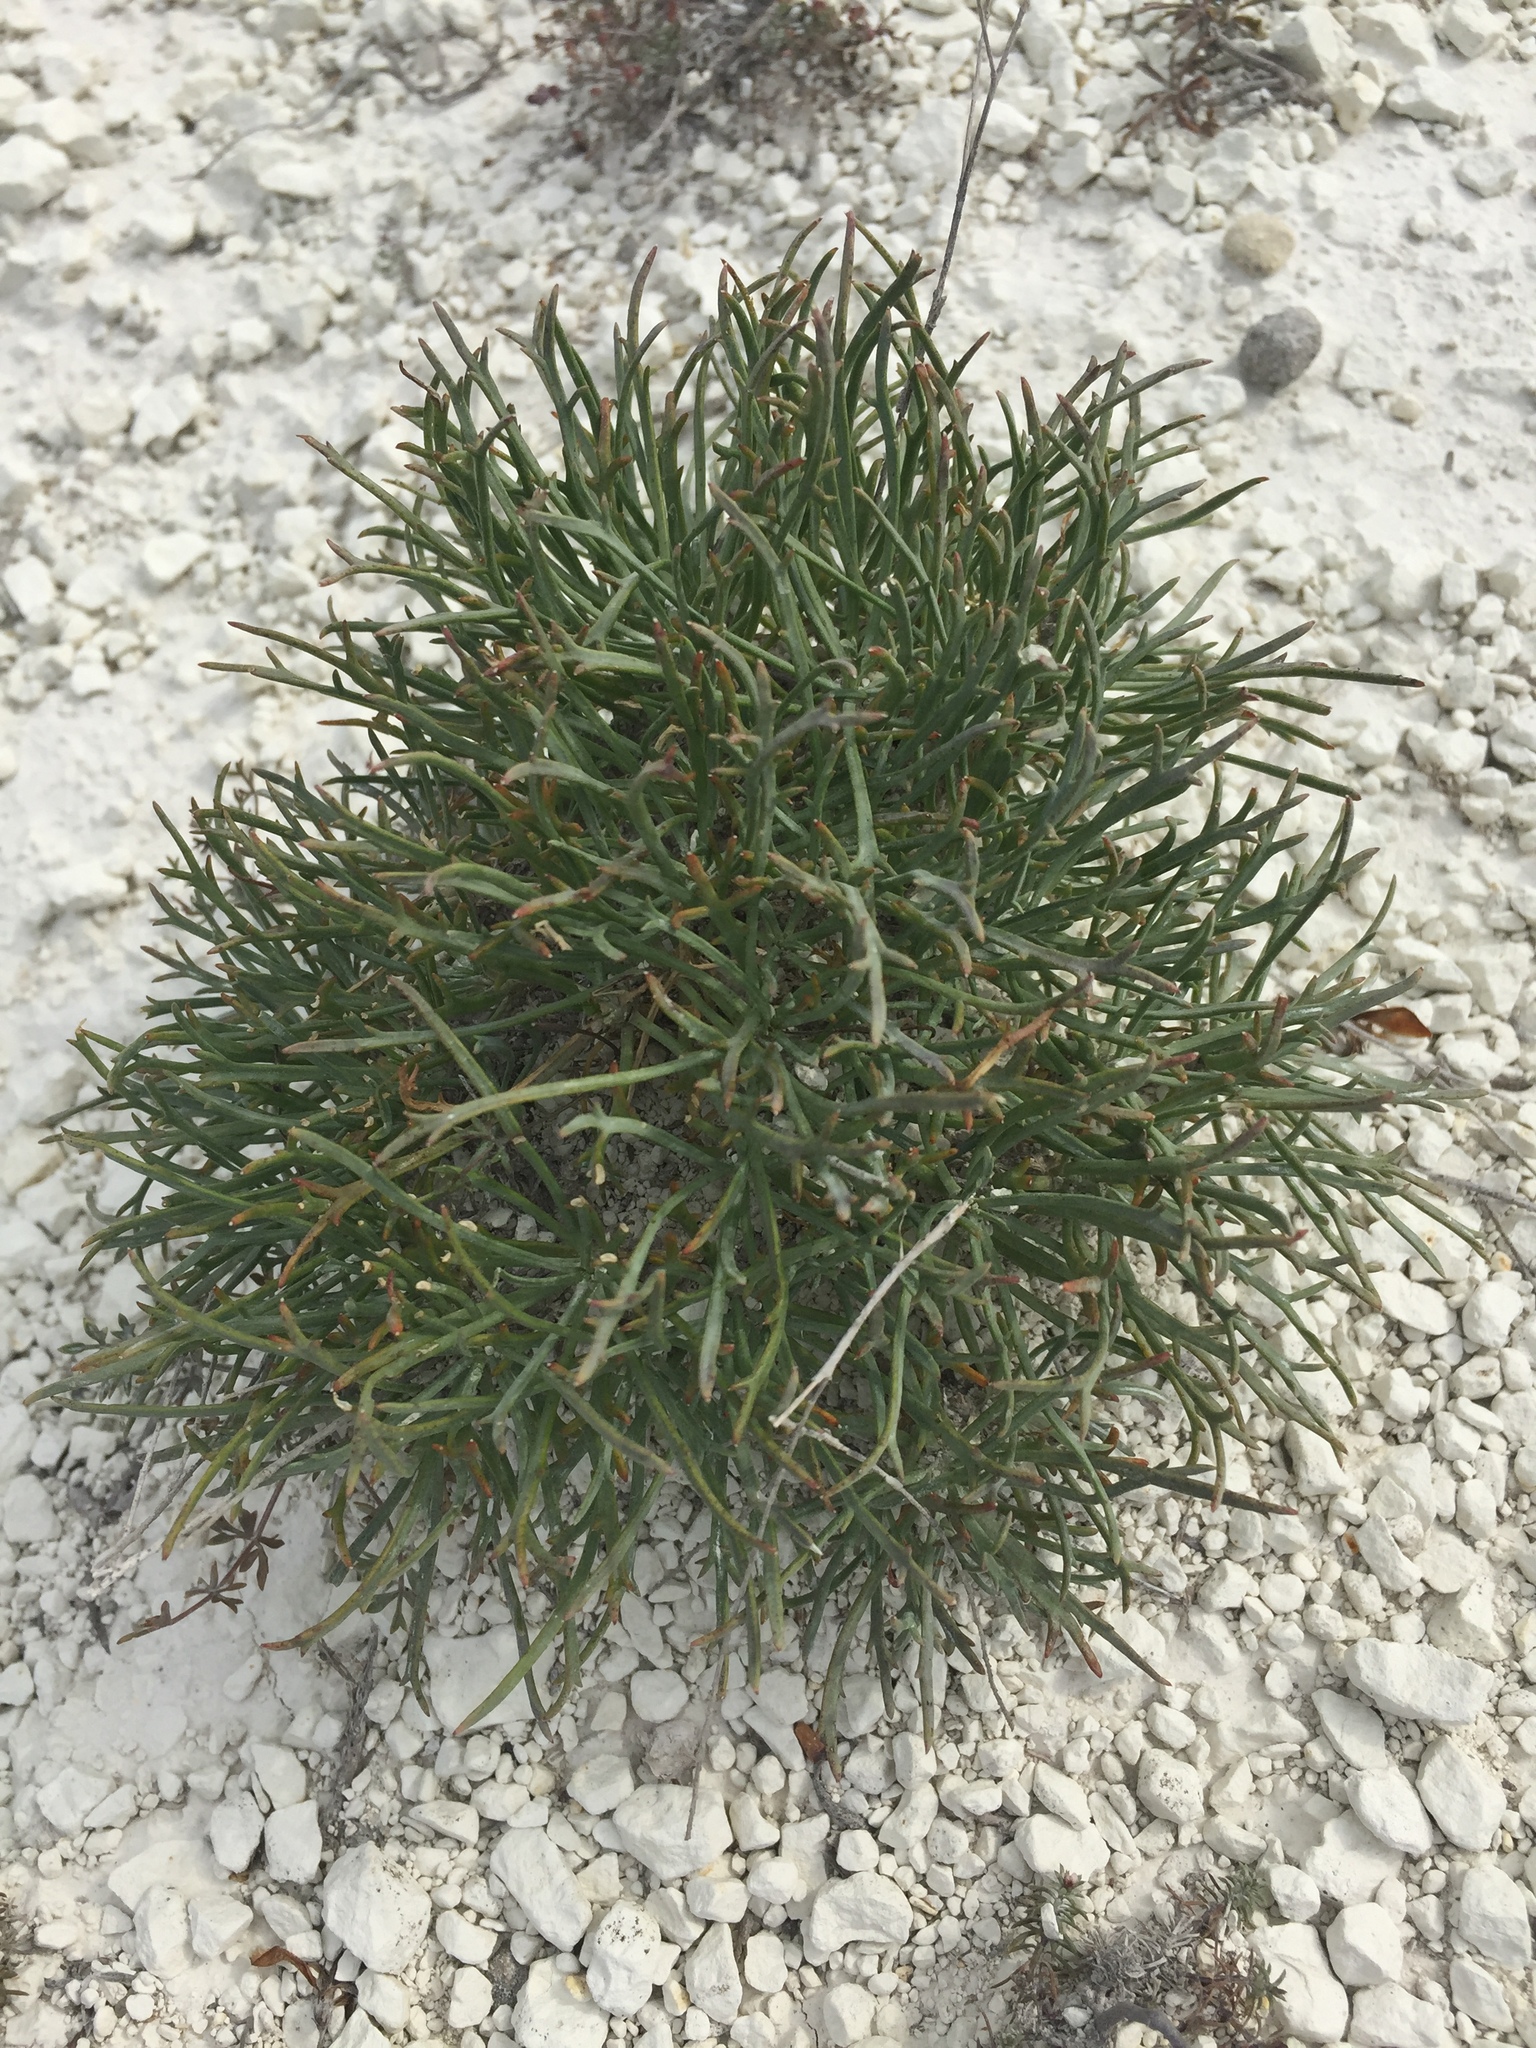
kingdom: Plantae
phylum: Tracheophyta
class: Magnoliopsida
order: Brassicales
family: Brassicaceae
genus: Lepidium
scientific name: Lepidium meyeri
